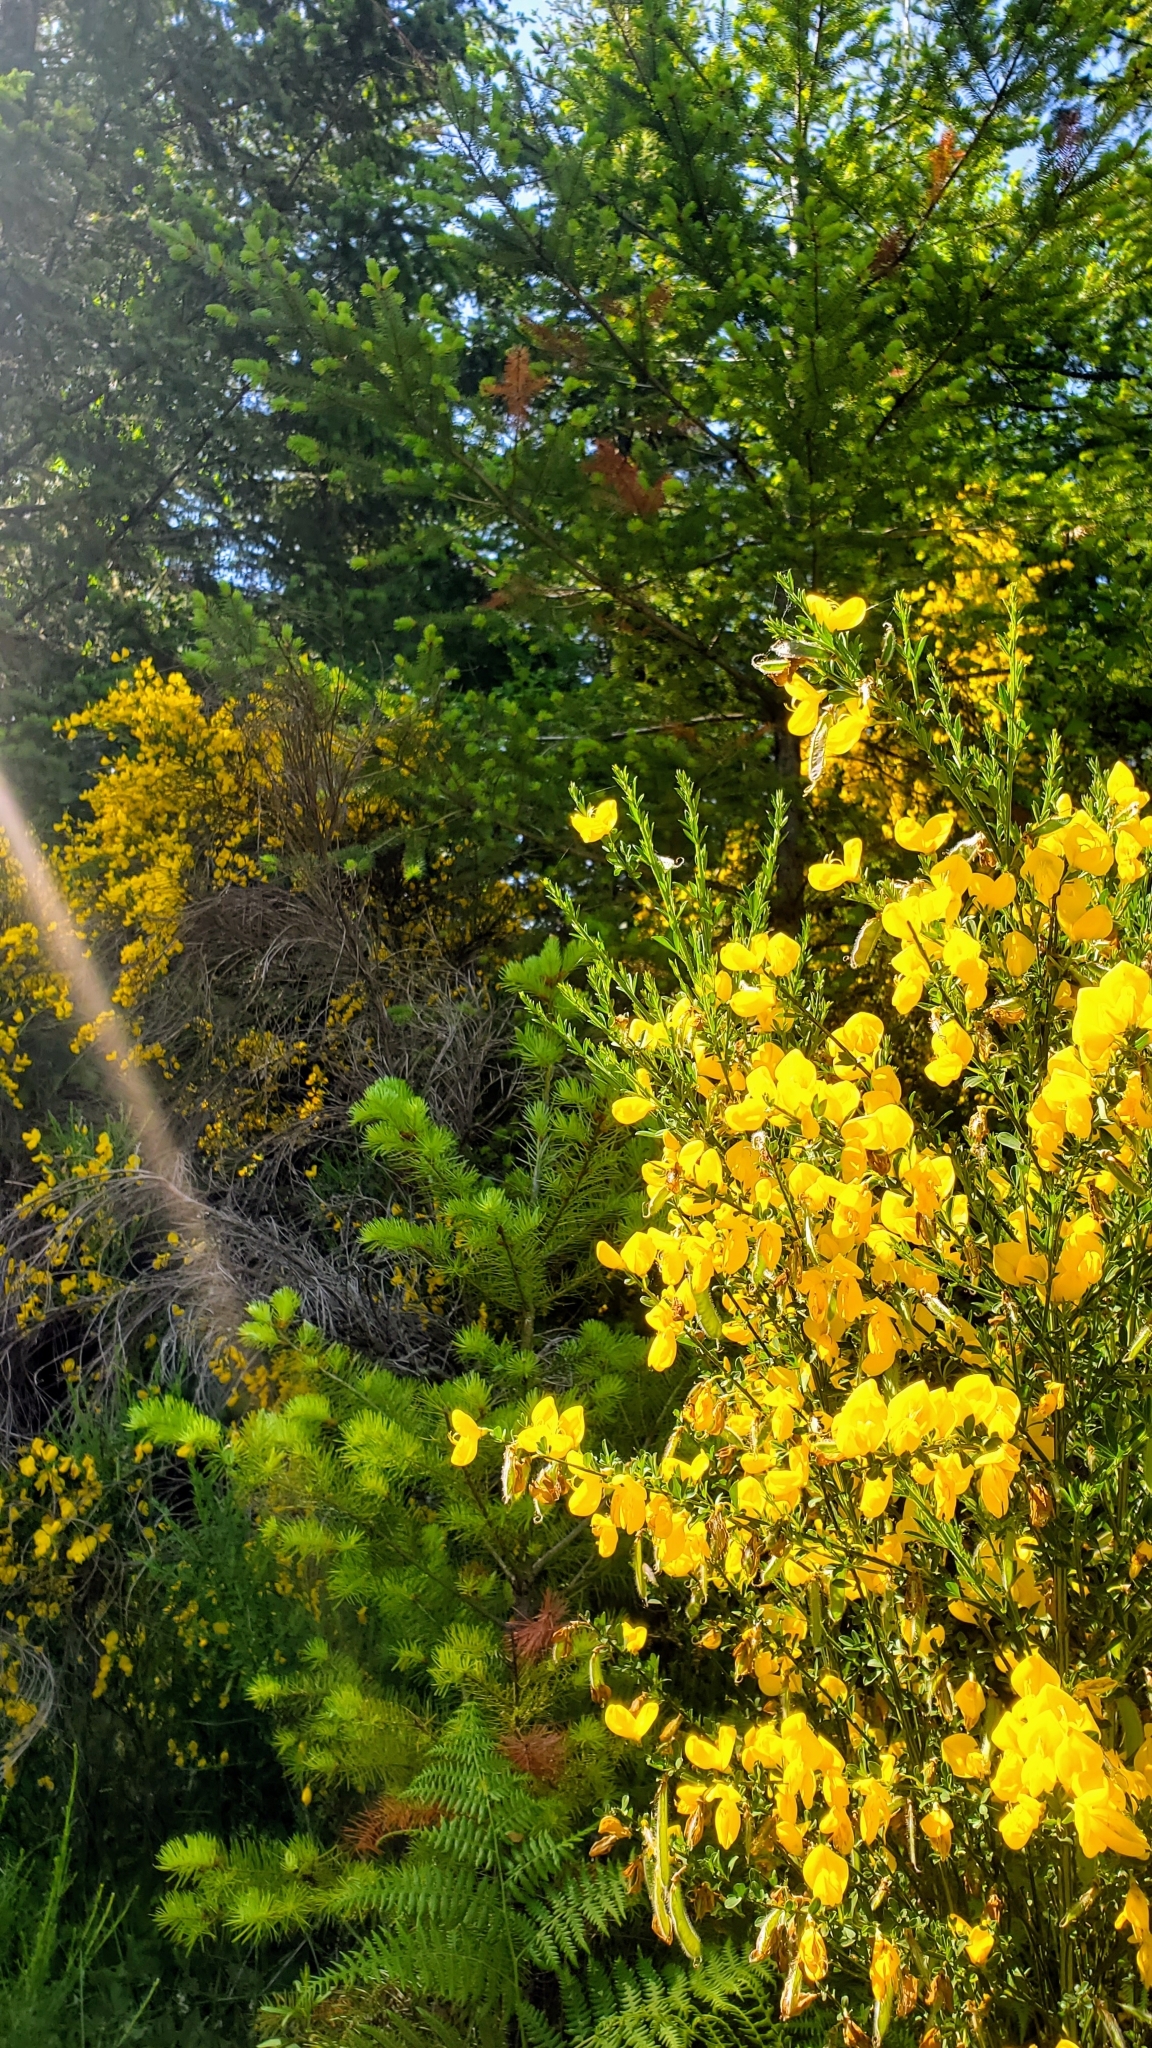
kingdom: Plantae
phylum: Tracheophyta
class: Magnoliopsida
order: Fabales
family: Fabaceae
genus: Cytisus
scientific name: Cytisus scoparius
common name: Scotch broom
